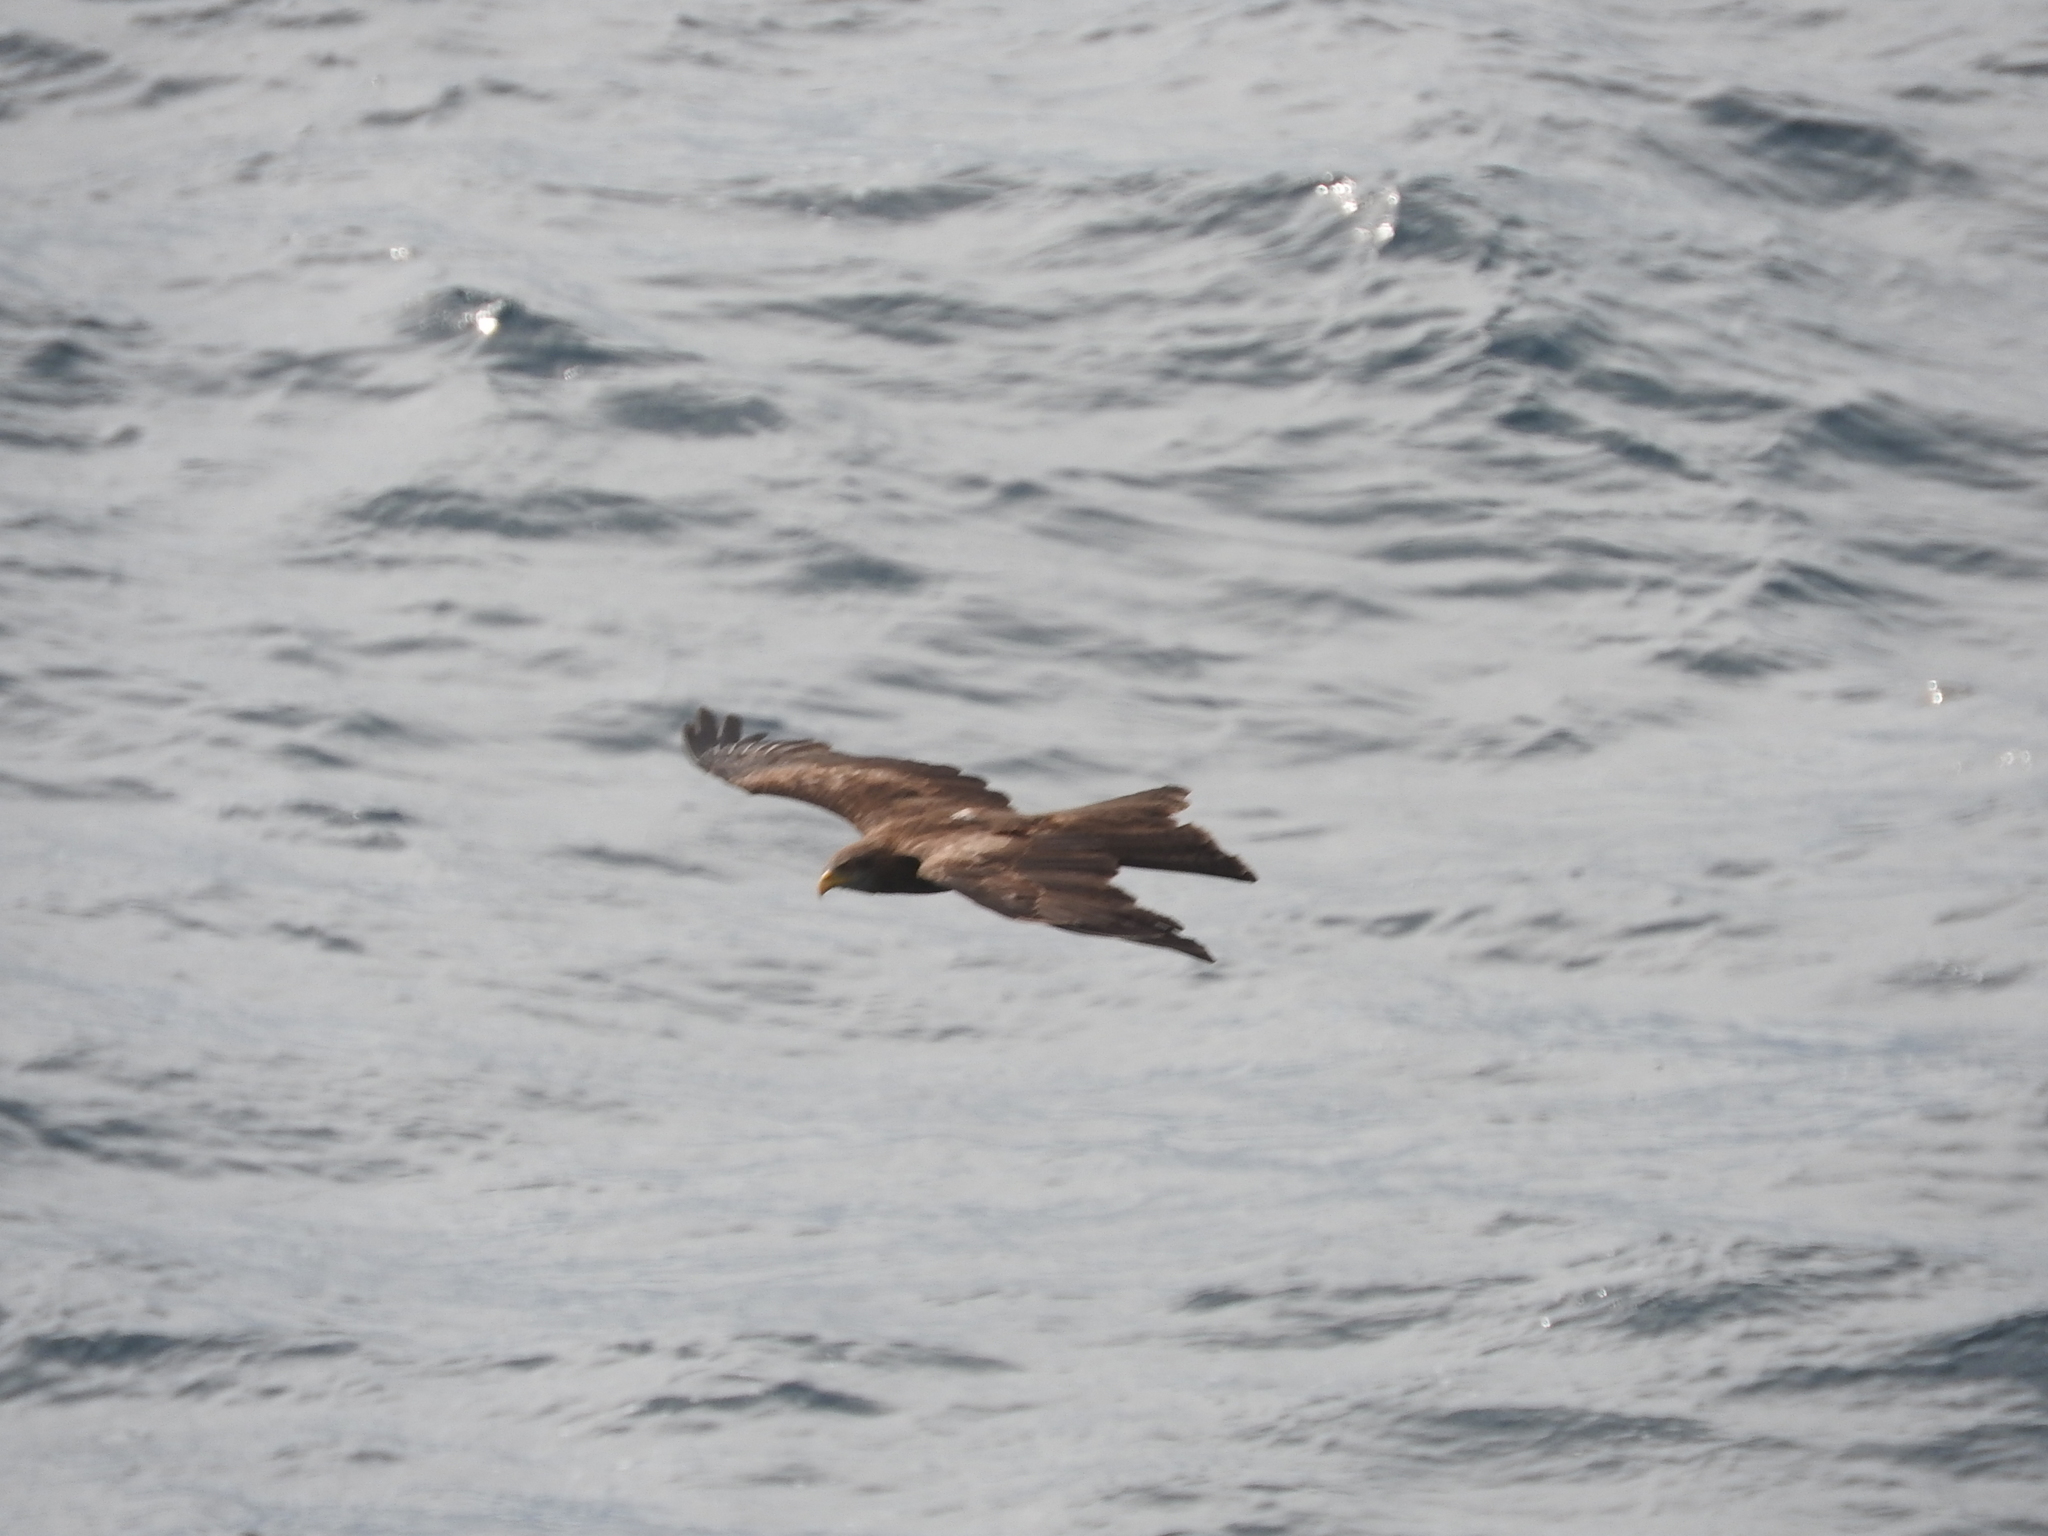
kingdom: Animalia
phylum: Chordata
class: Aves
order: Accipitriformes
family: Accipitridae
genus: Milvus
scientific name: Milvus migrans
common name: Black kite
